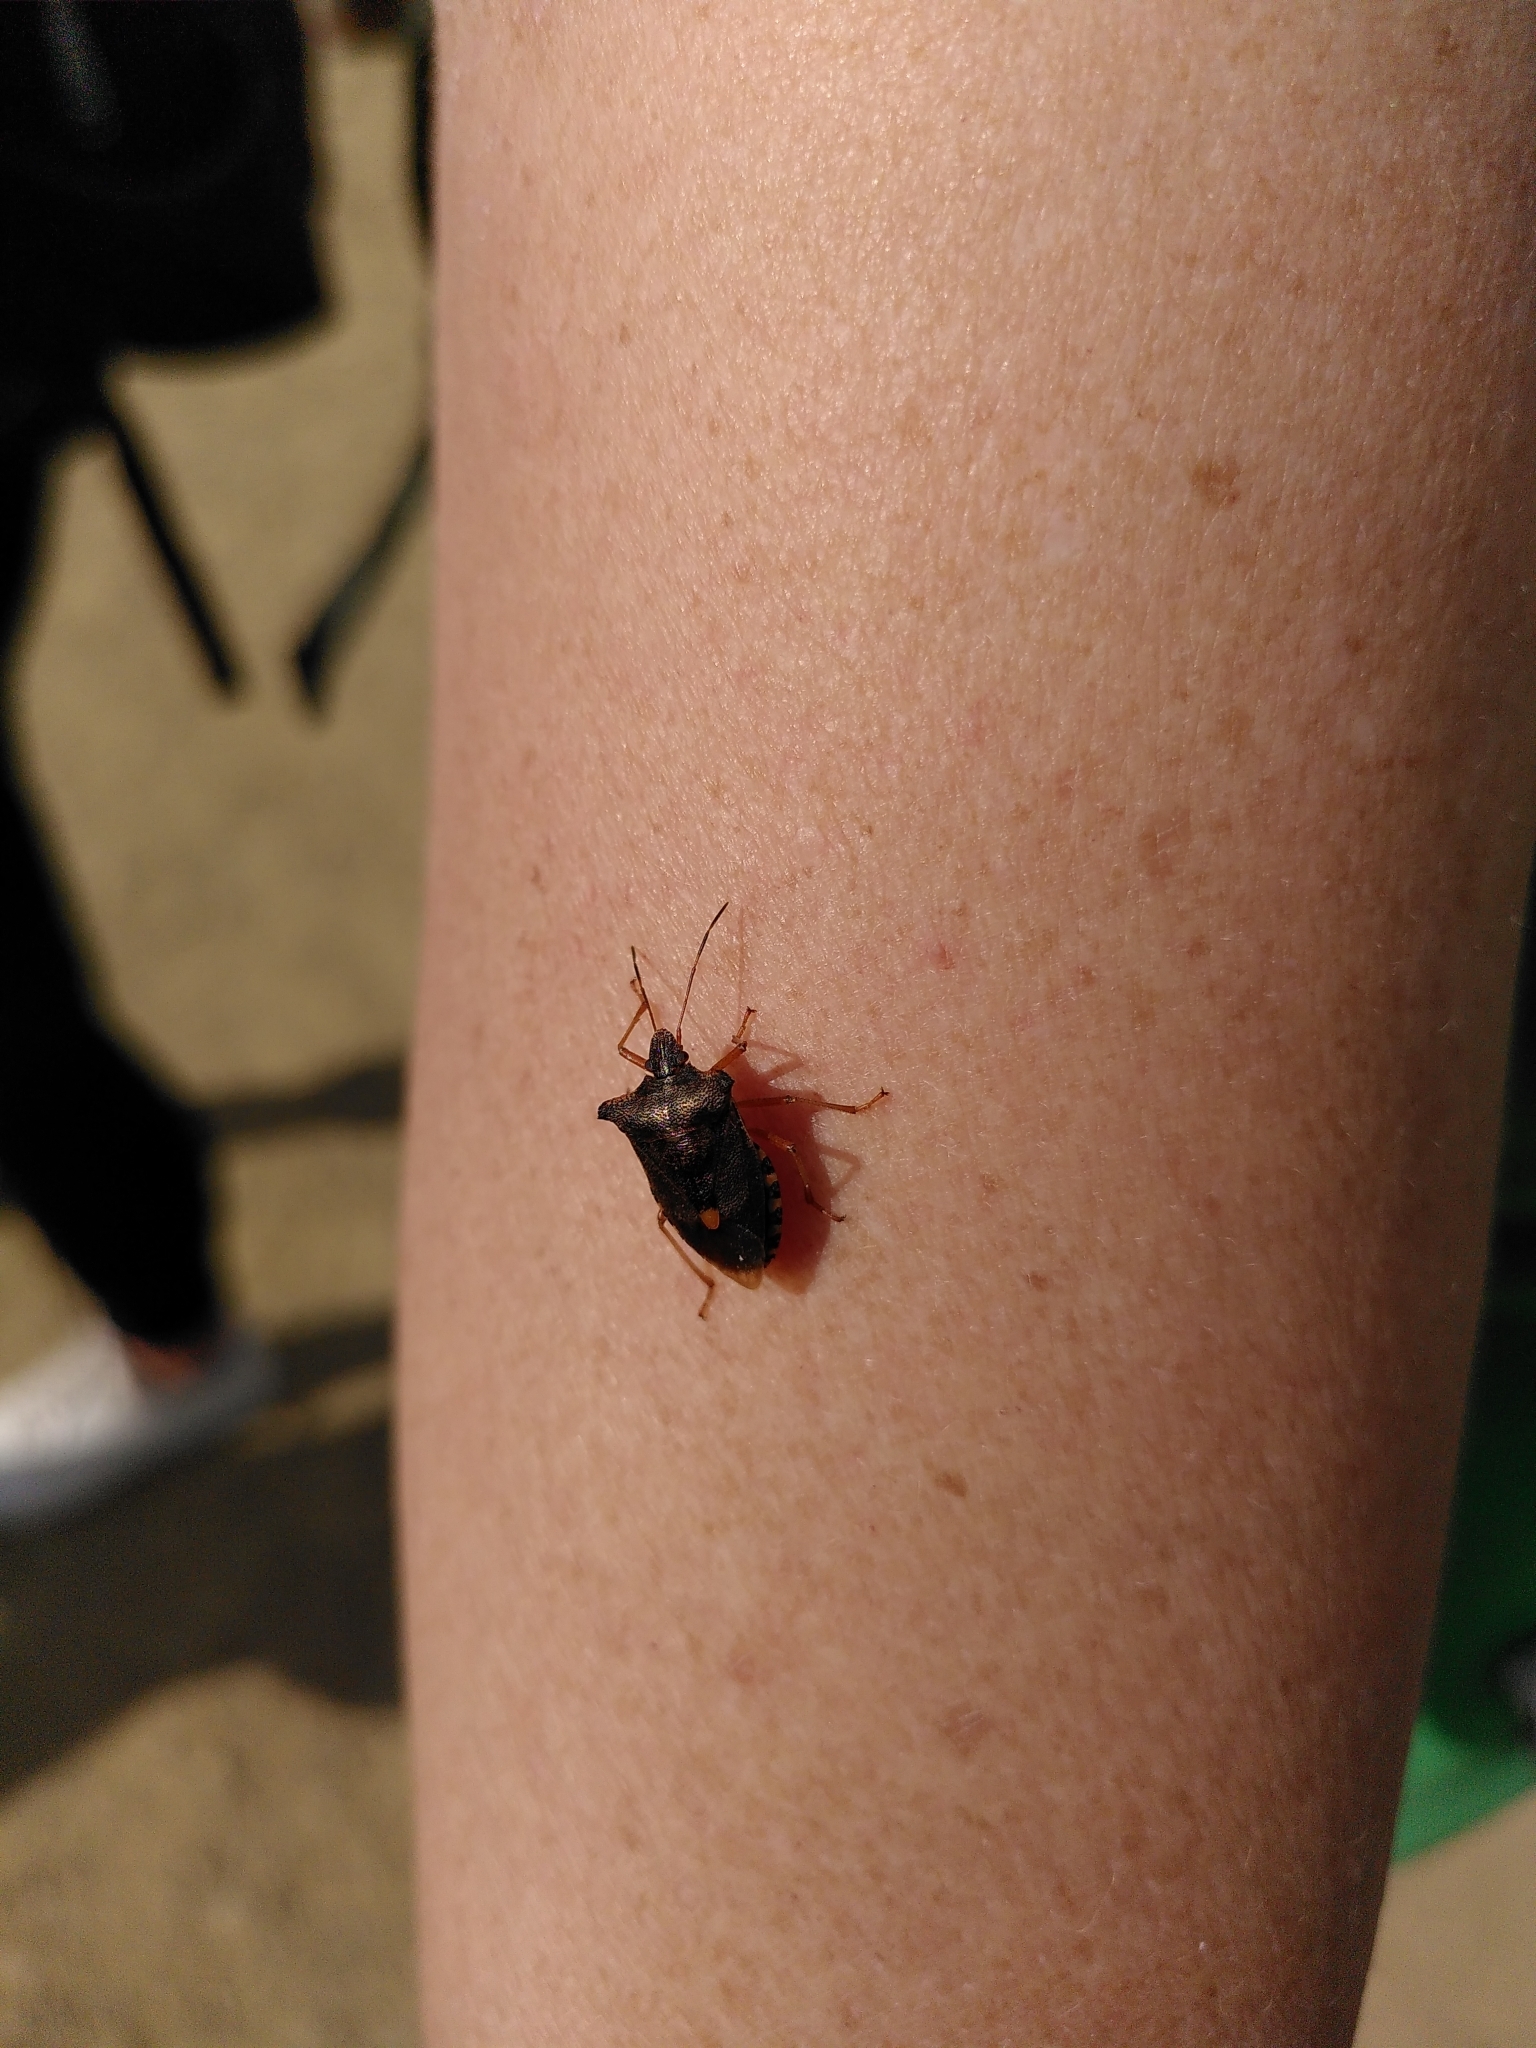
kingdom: Animalia
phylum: Arthropoda
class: Insecta
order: Hemiptera
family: Pentatomidae
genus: Pentatoma
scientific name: Pentatoma rufipes
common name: Forest bug
